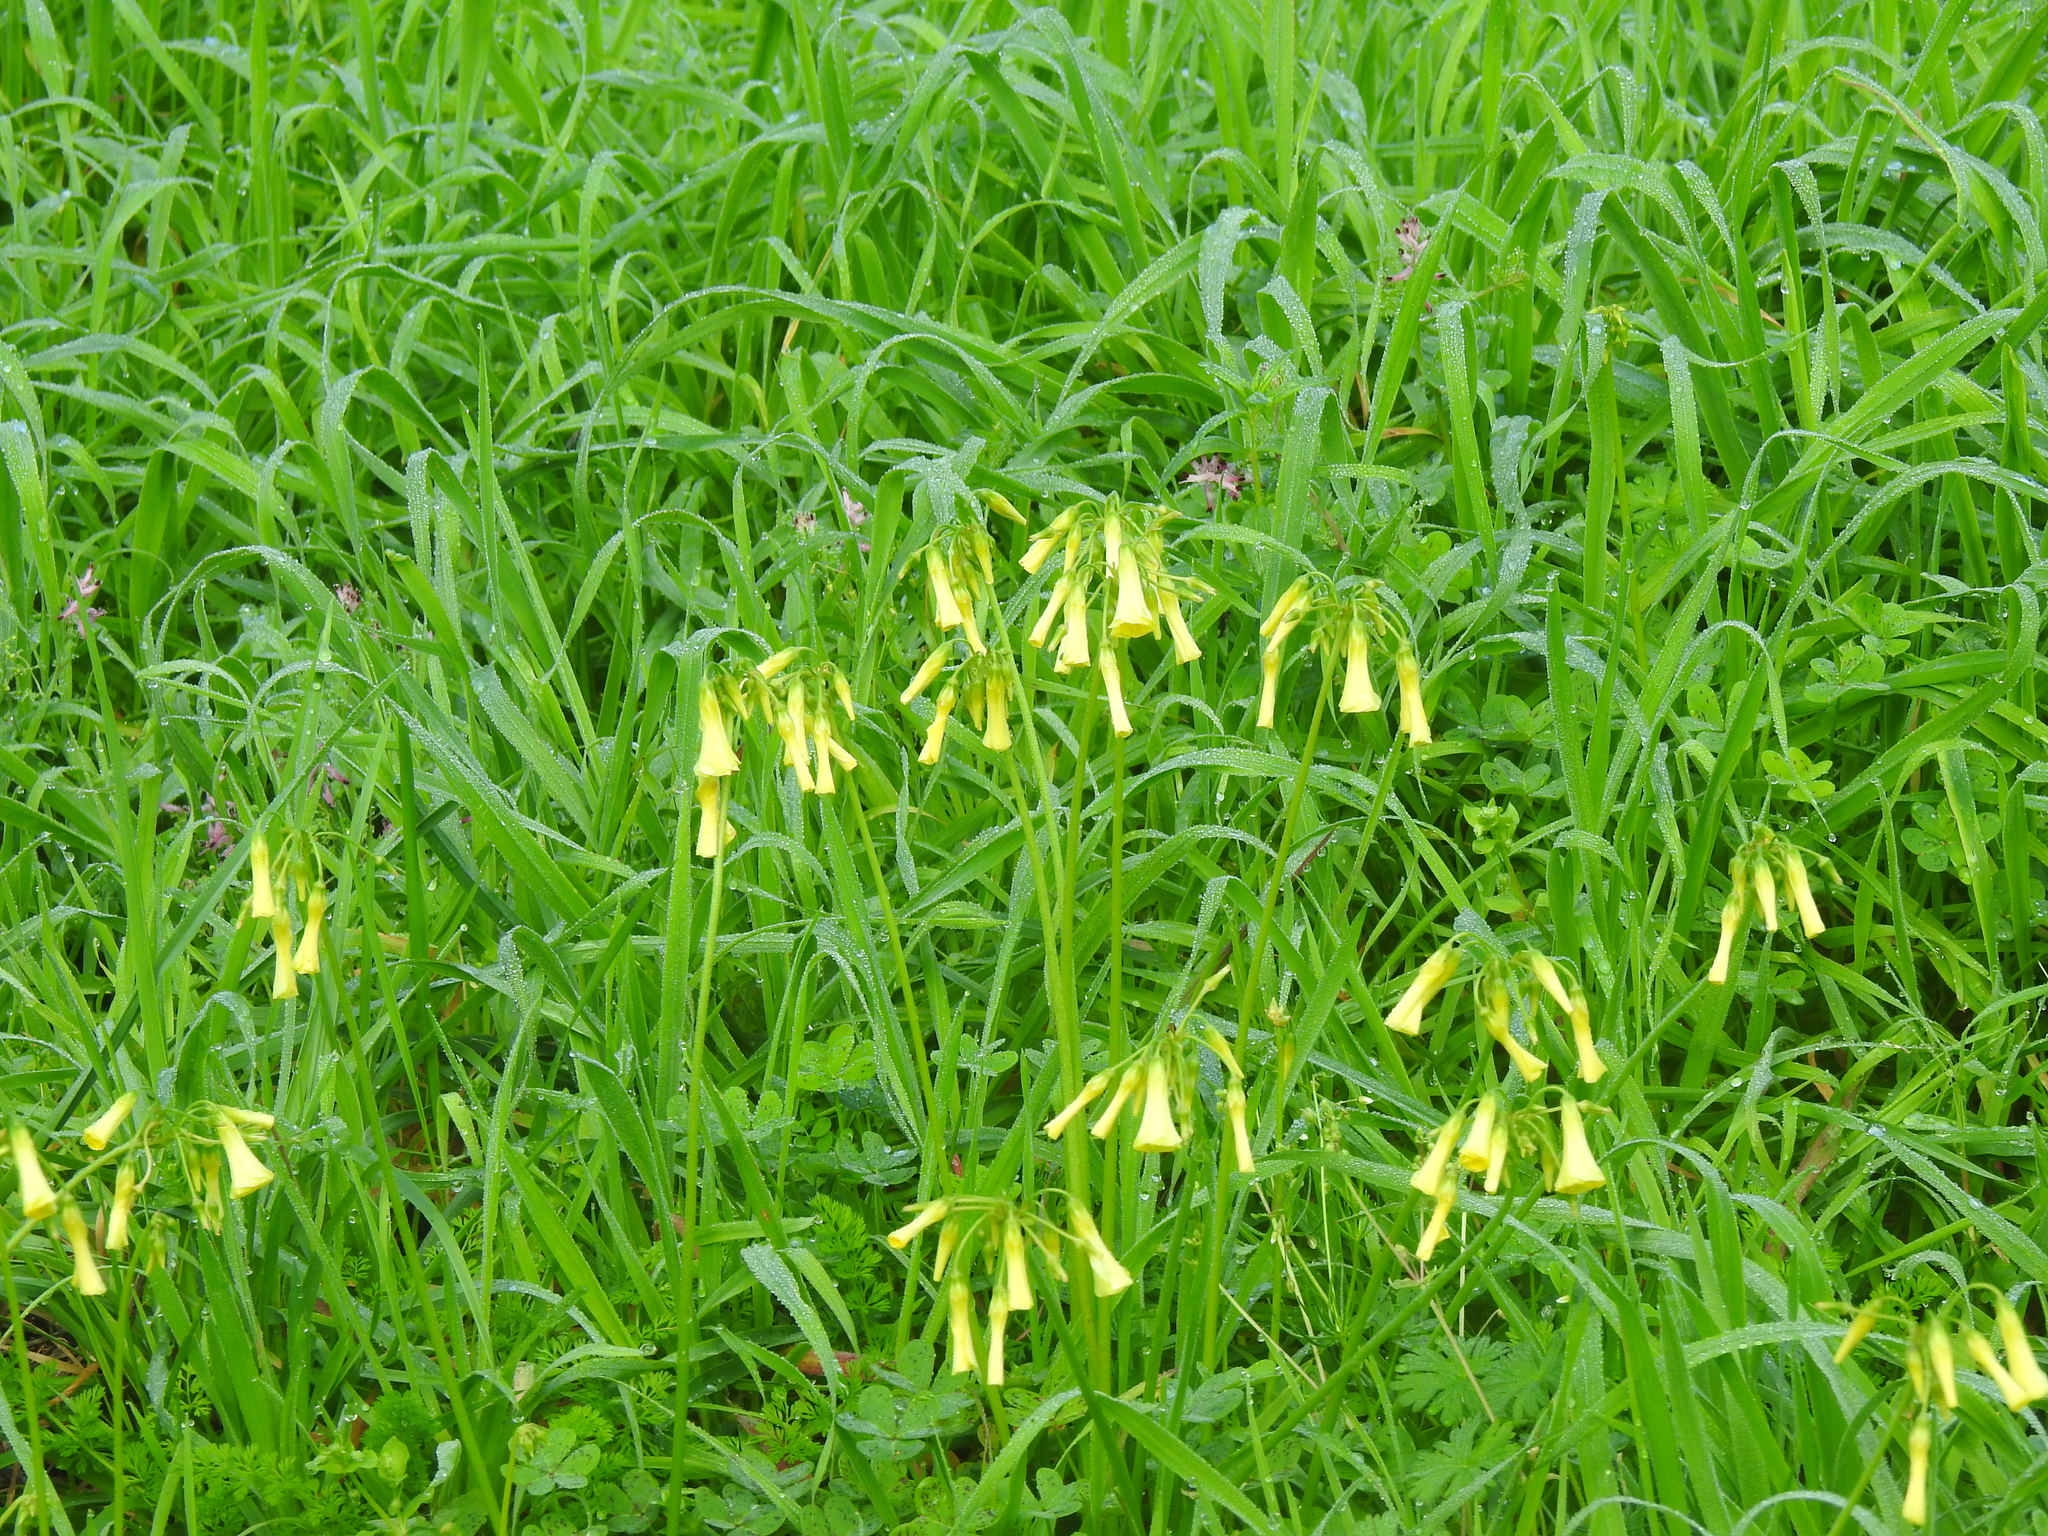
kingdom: Plantae
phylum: Tracheophyta
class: Magnoliopsida
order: Oxalidales
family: Oxalidaceae
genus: Oxalis
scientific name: Oxalis pes-caprae
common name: Bermuda-buttercup
